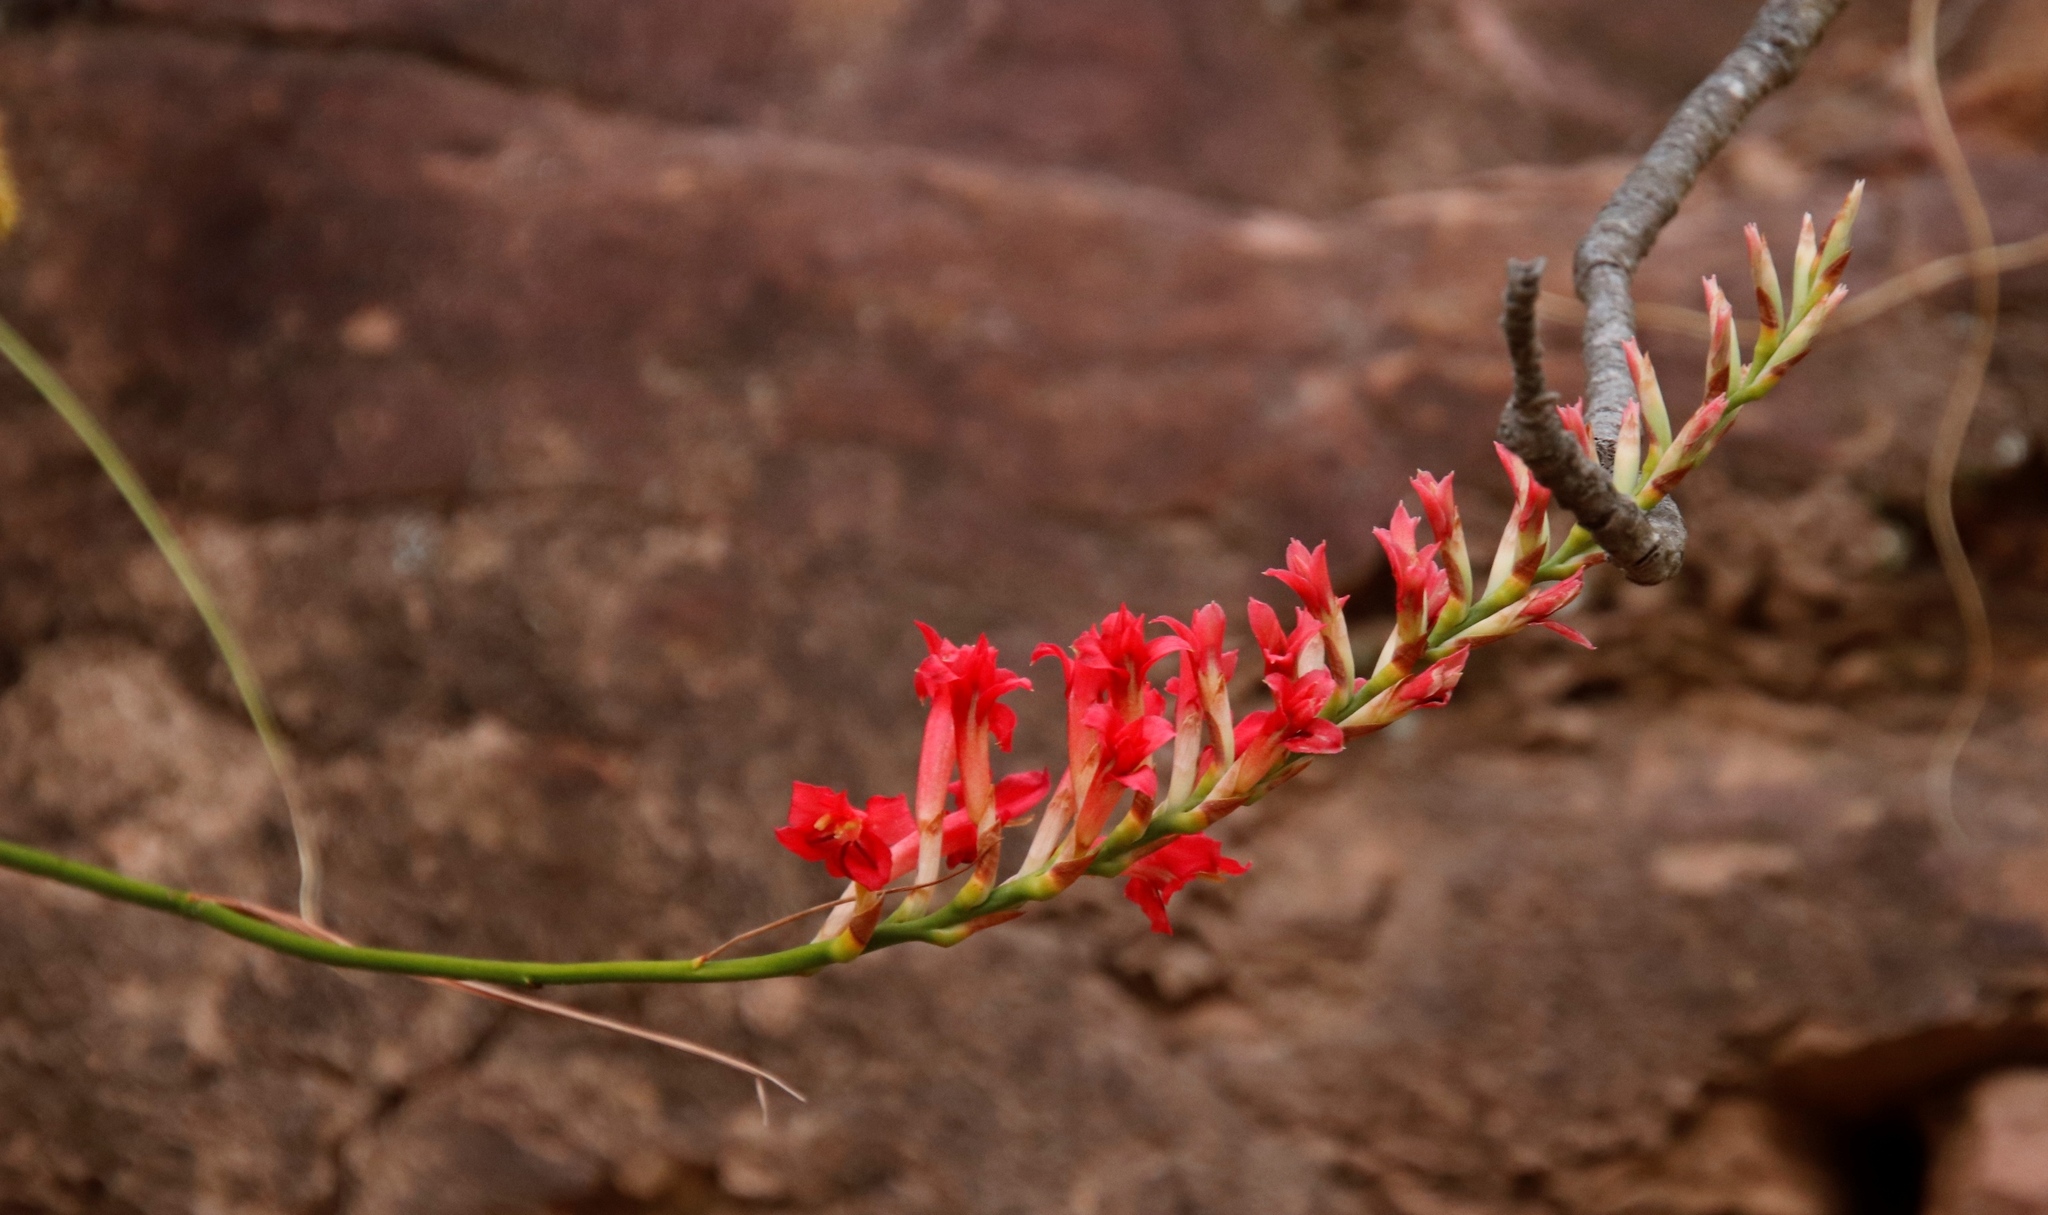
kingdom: Plantae
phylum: Tracheophyta
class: Liliopsida
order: Asparagales
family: Iridaceae
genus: Tritoniopsis
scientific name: Tritoniopsis triticea
